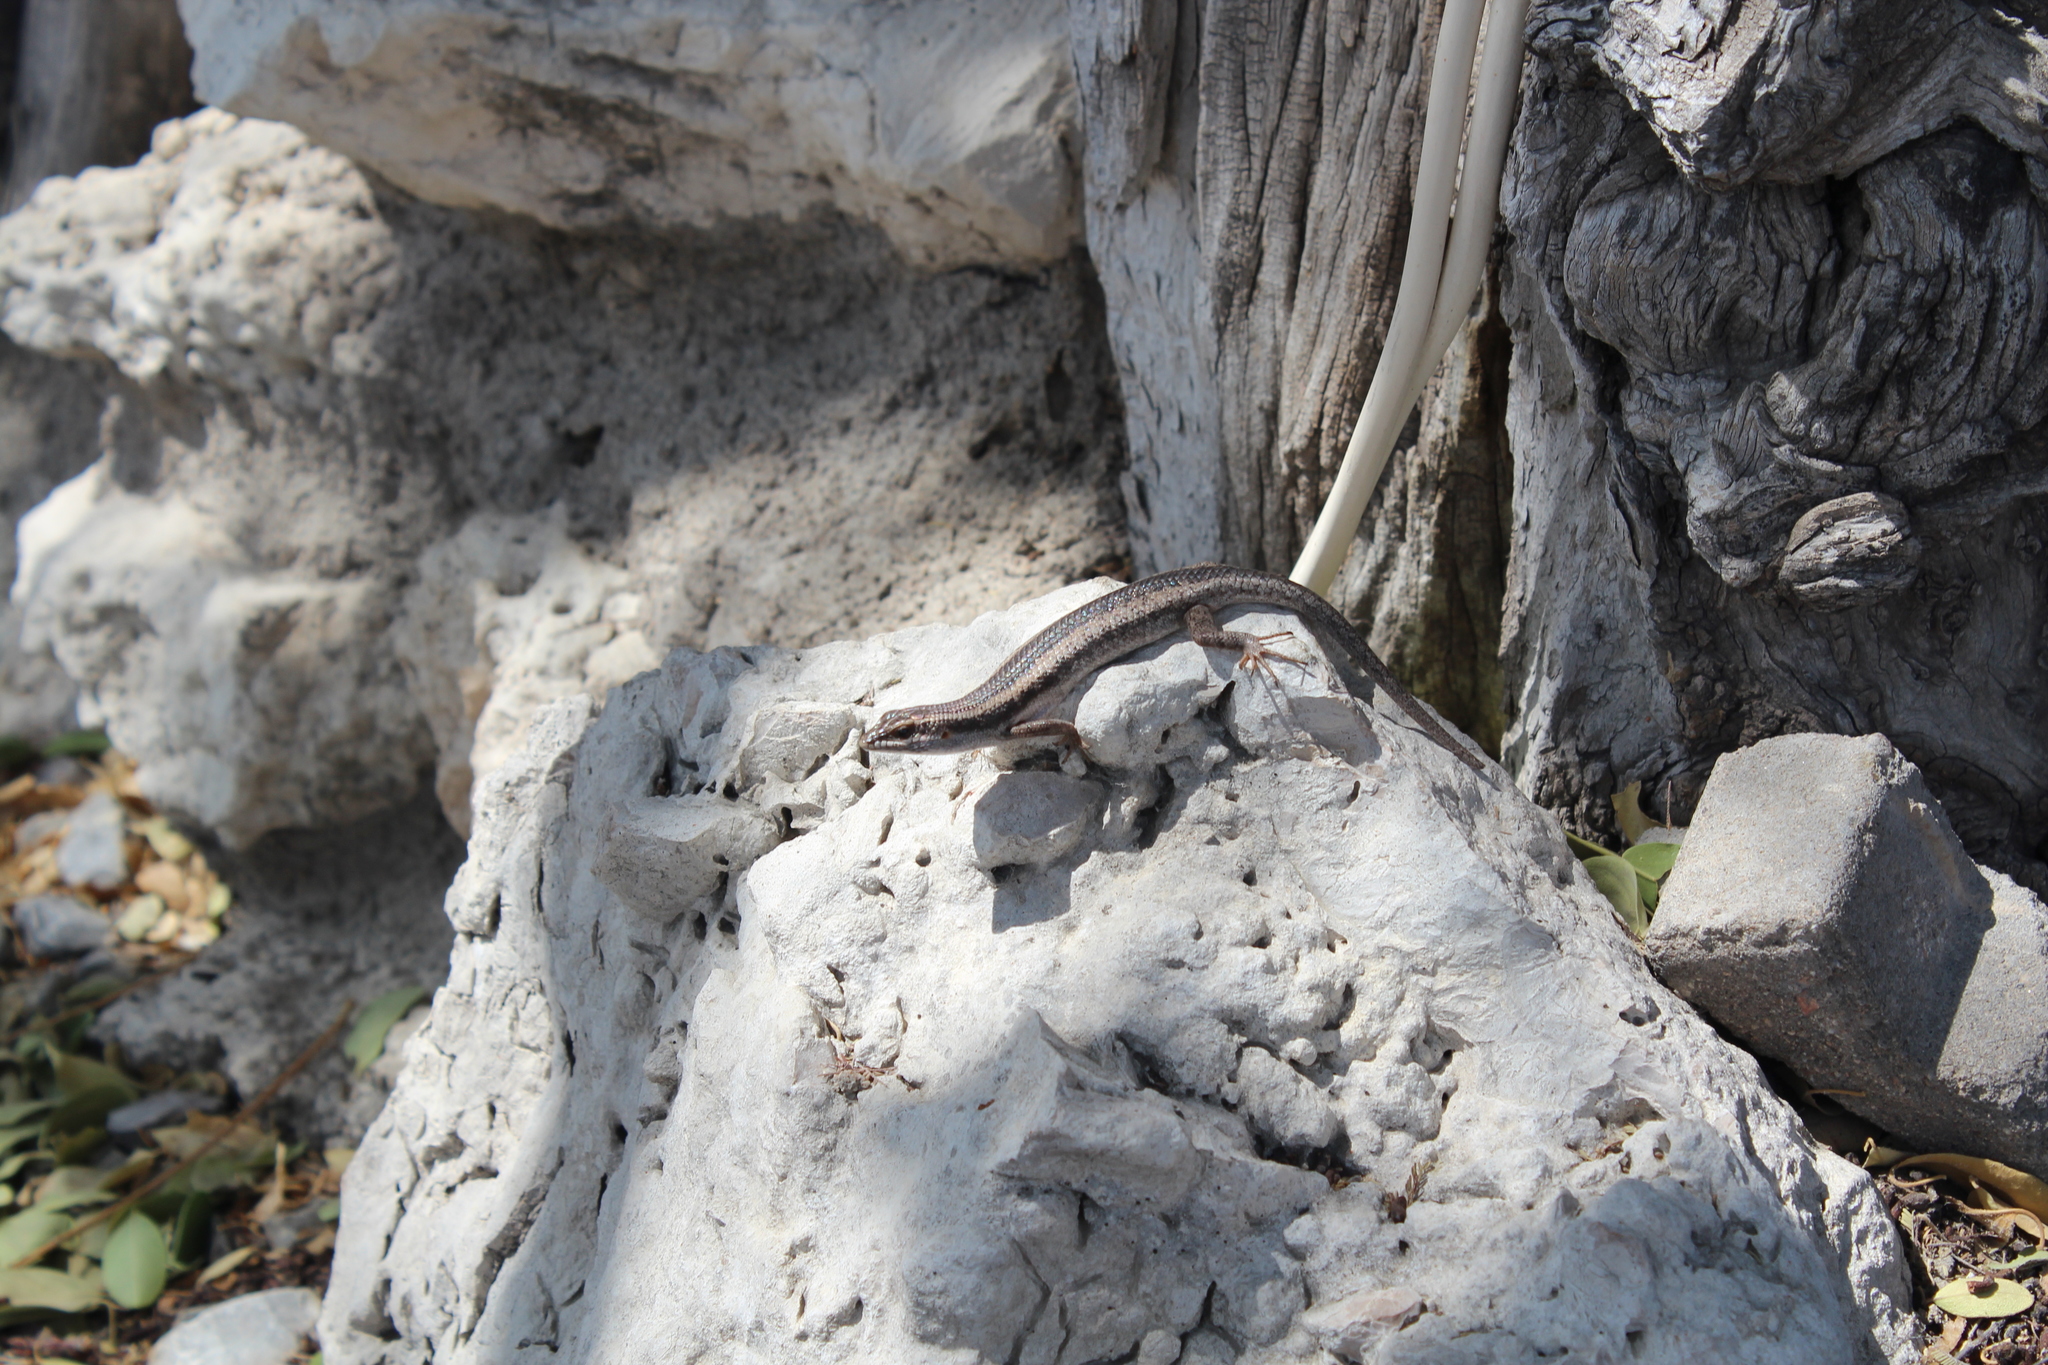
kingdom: Animalia
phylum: Chordata
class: Squamata
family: Scincidae
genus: Trachylepis
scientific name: Trachylepis spilogaster
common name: Kalahari tree skink
